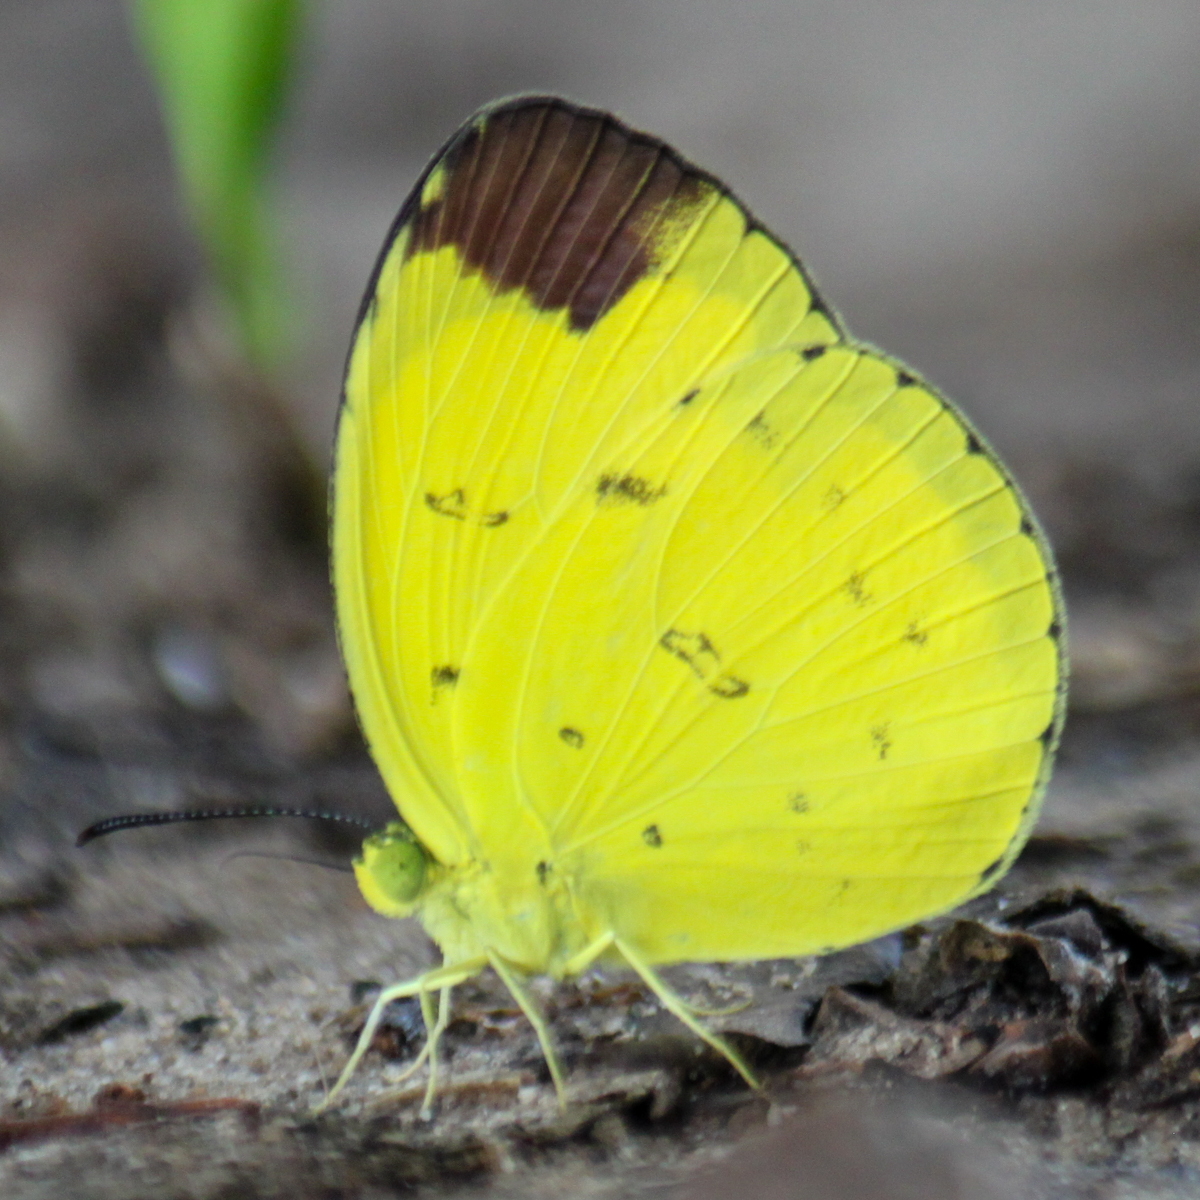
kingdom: Animalia
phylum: Arthropoda
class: Insecta
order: Lepidoptera
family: Pieridae
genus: Eurema
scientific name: Eurema sari
